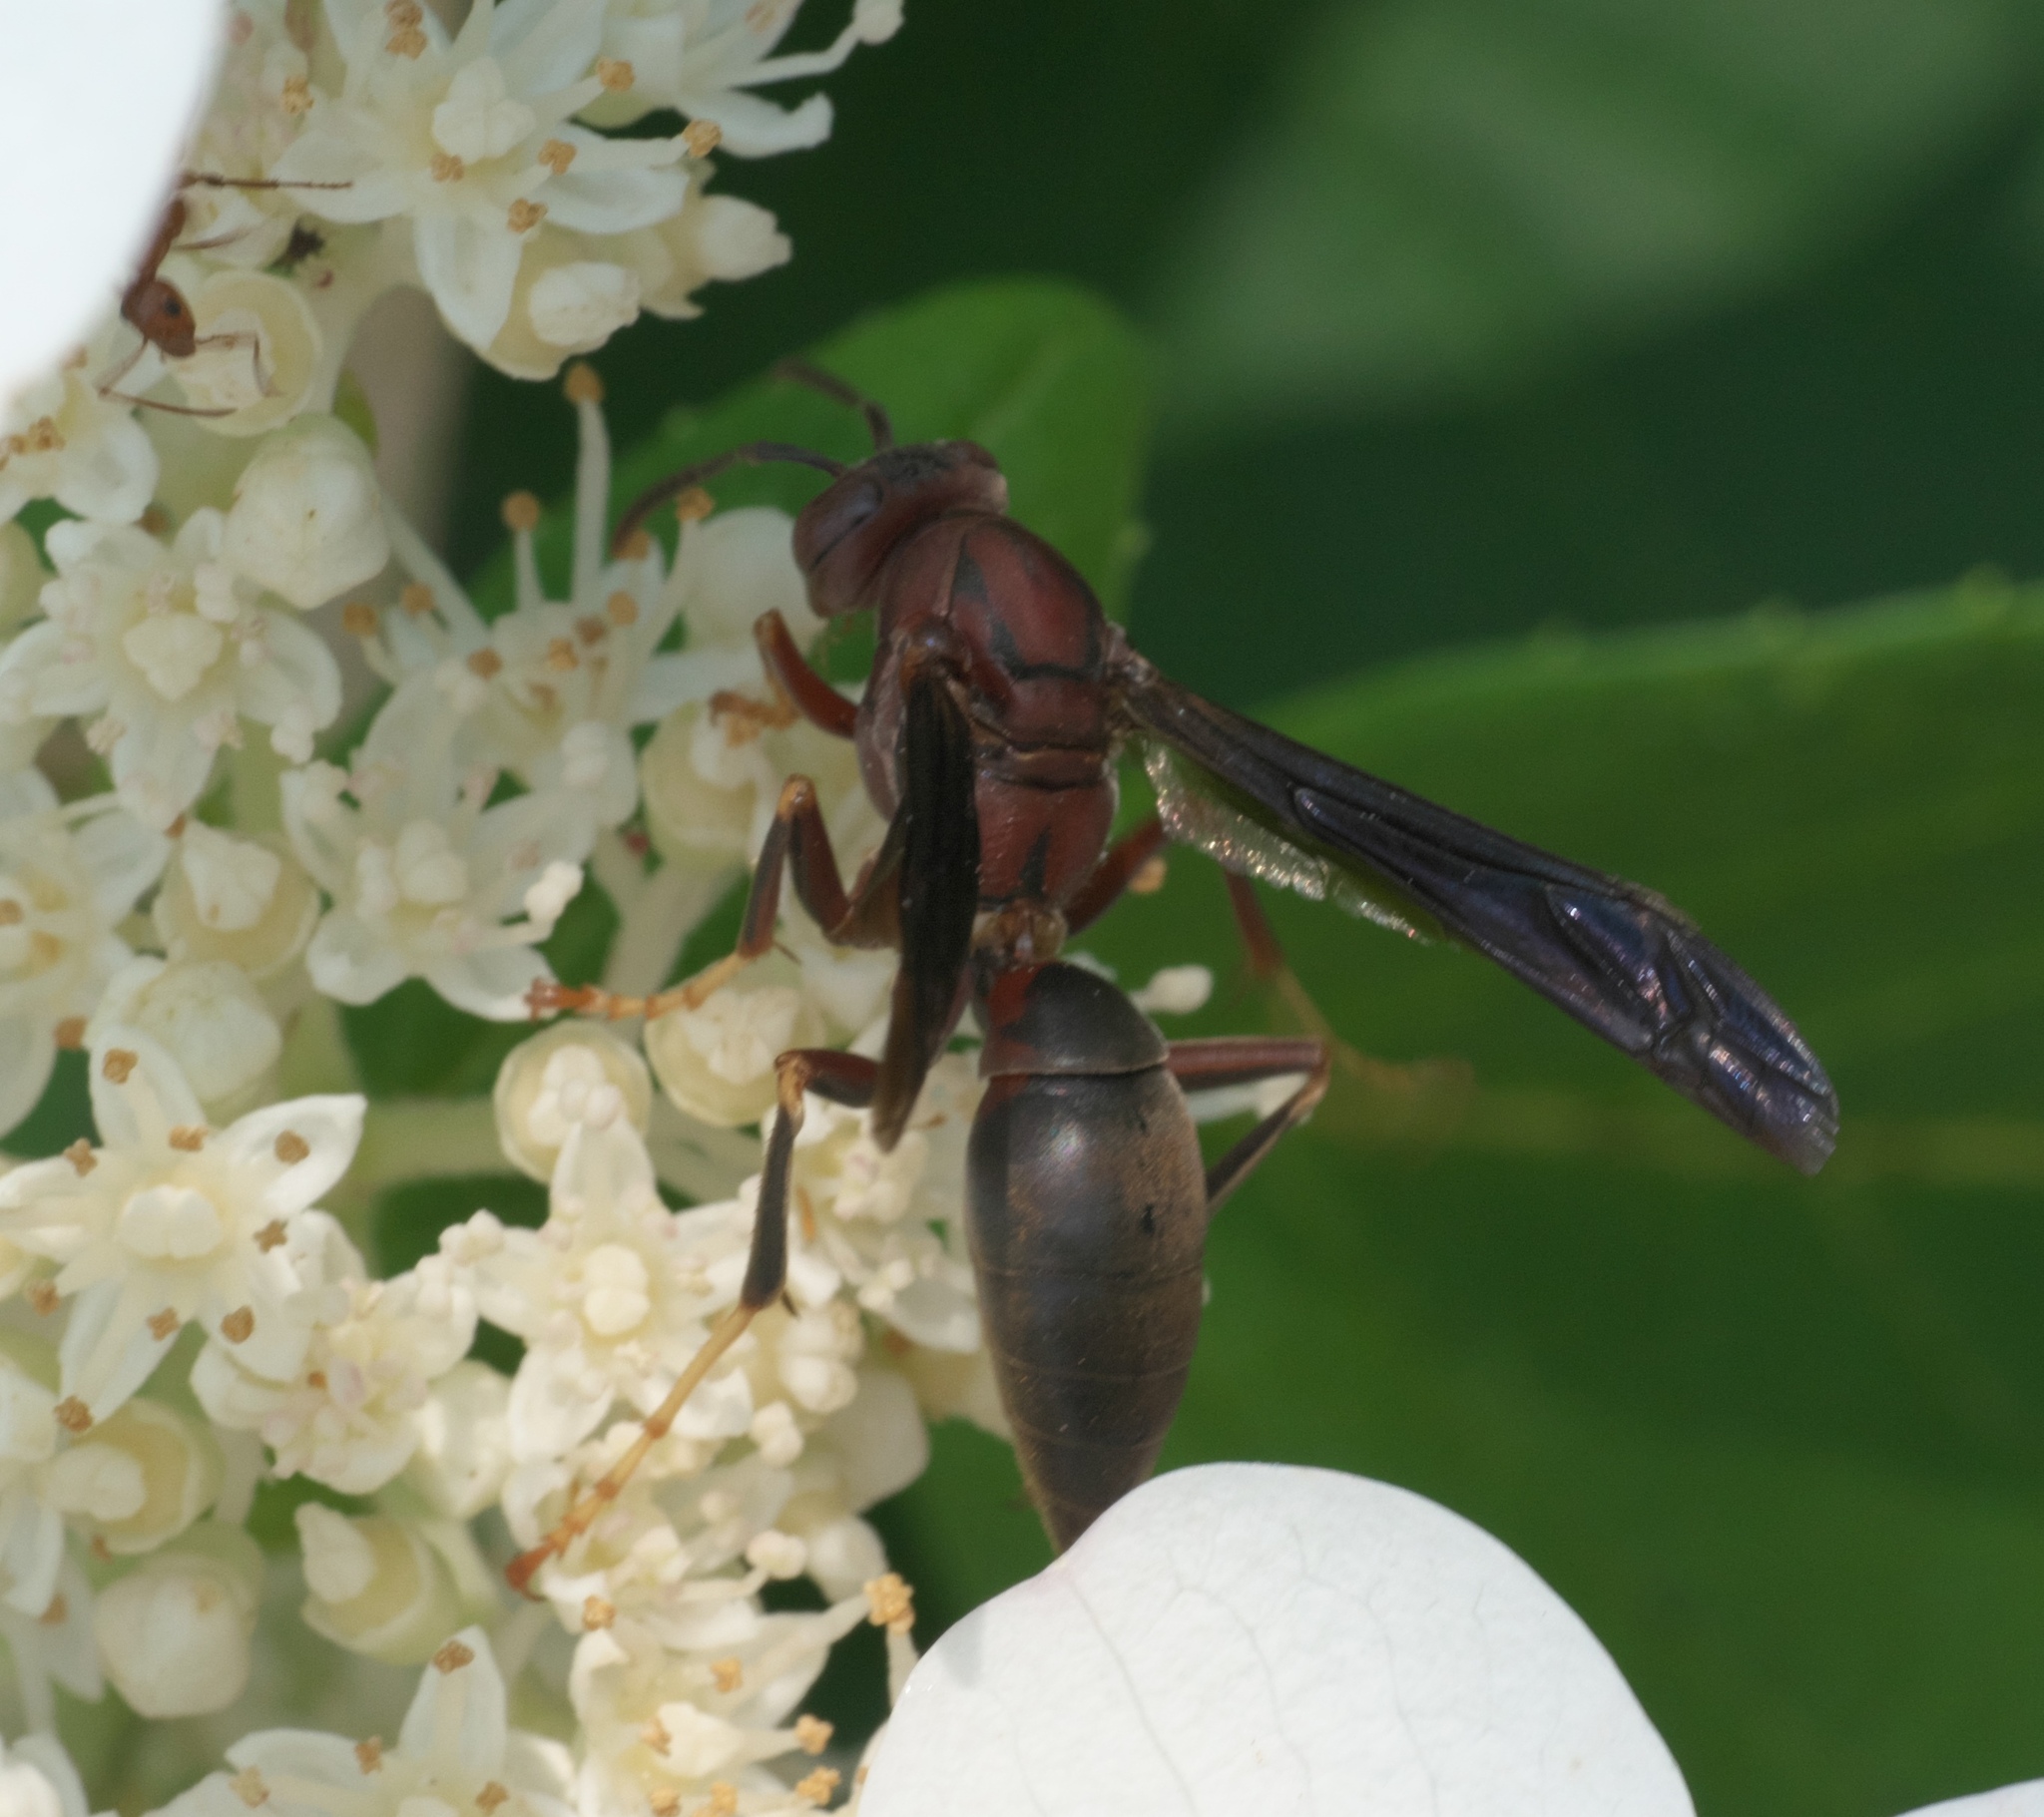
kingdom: Animalia
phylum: Arthropoda
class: Insecta
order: Hymenoptera
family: Eumenidae
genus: Polistes
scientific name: Polistes metricus
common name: Metric paper wasp
